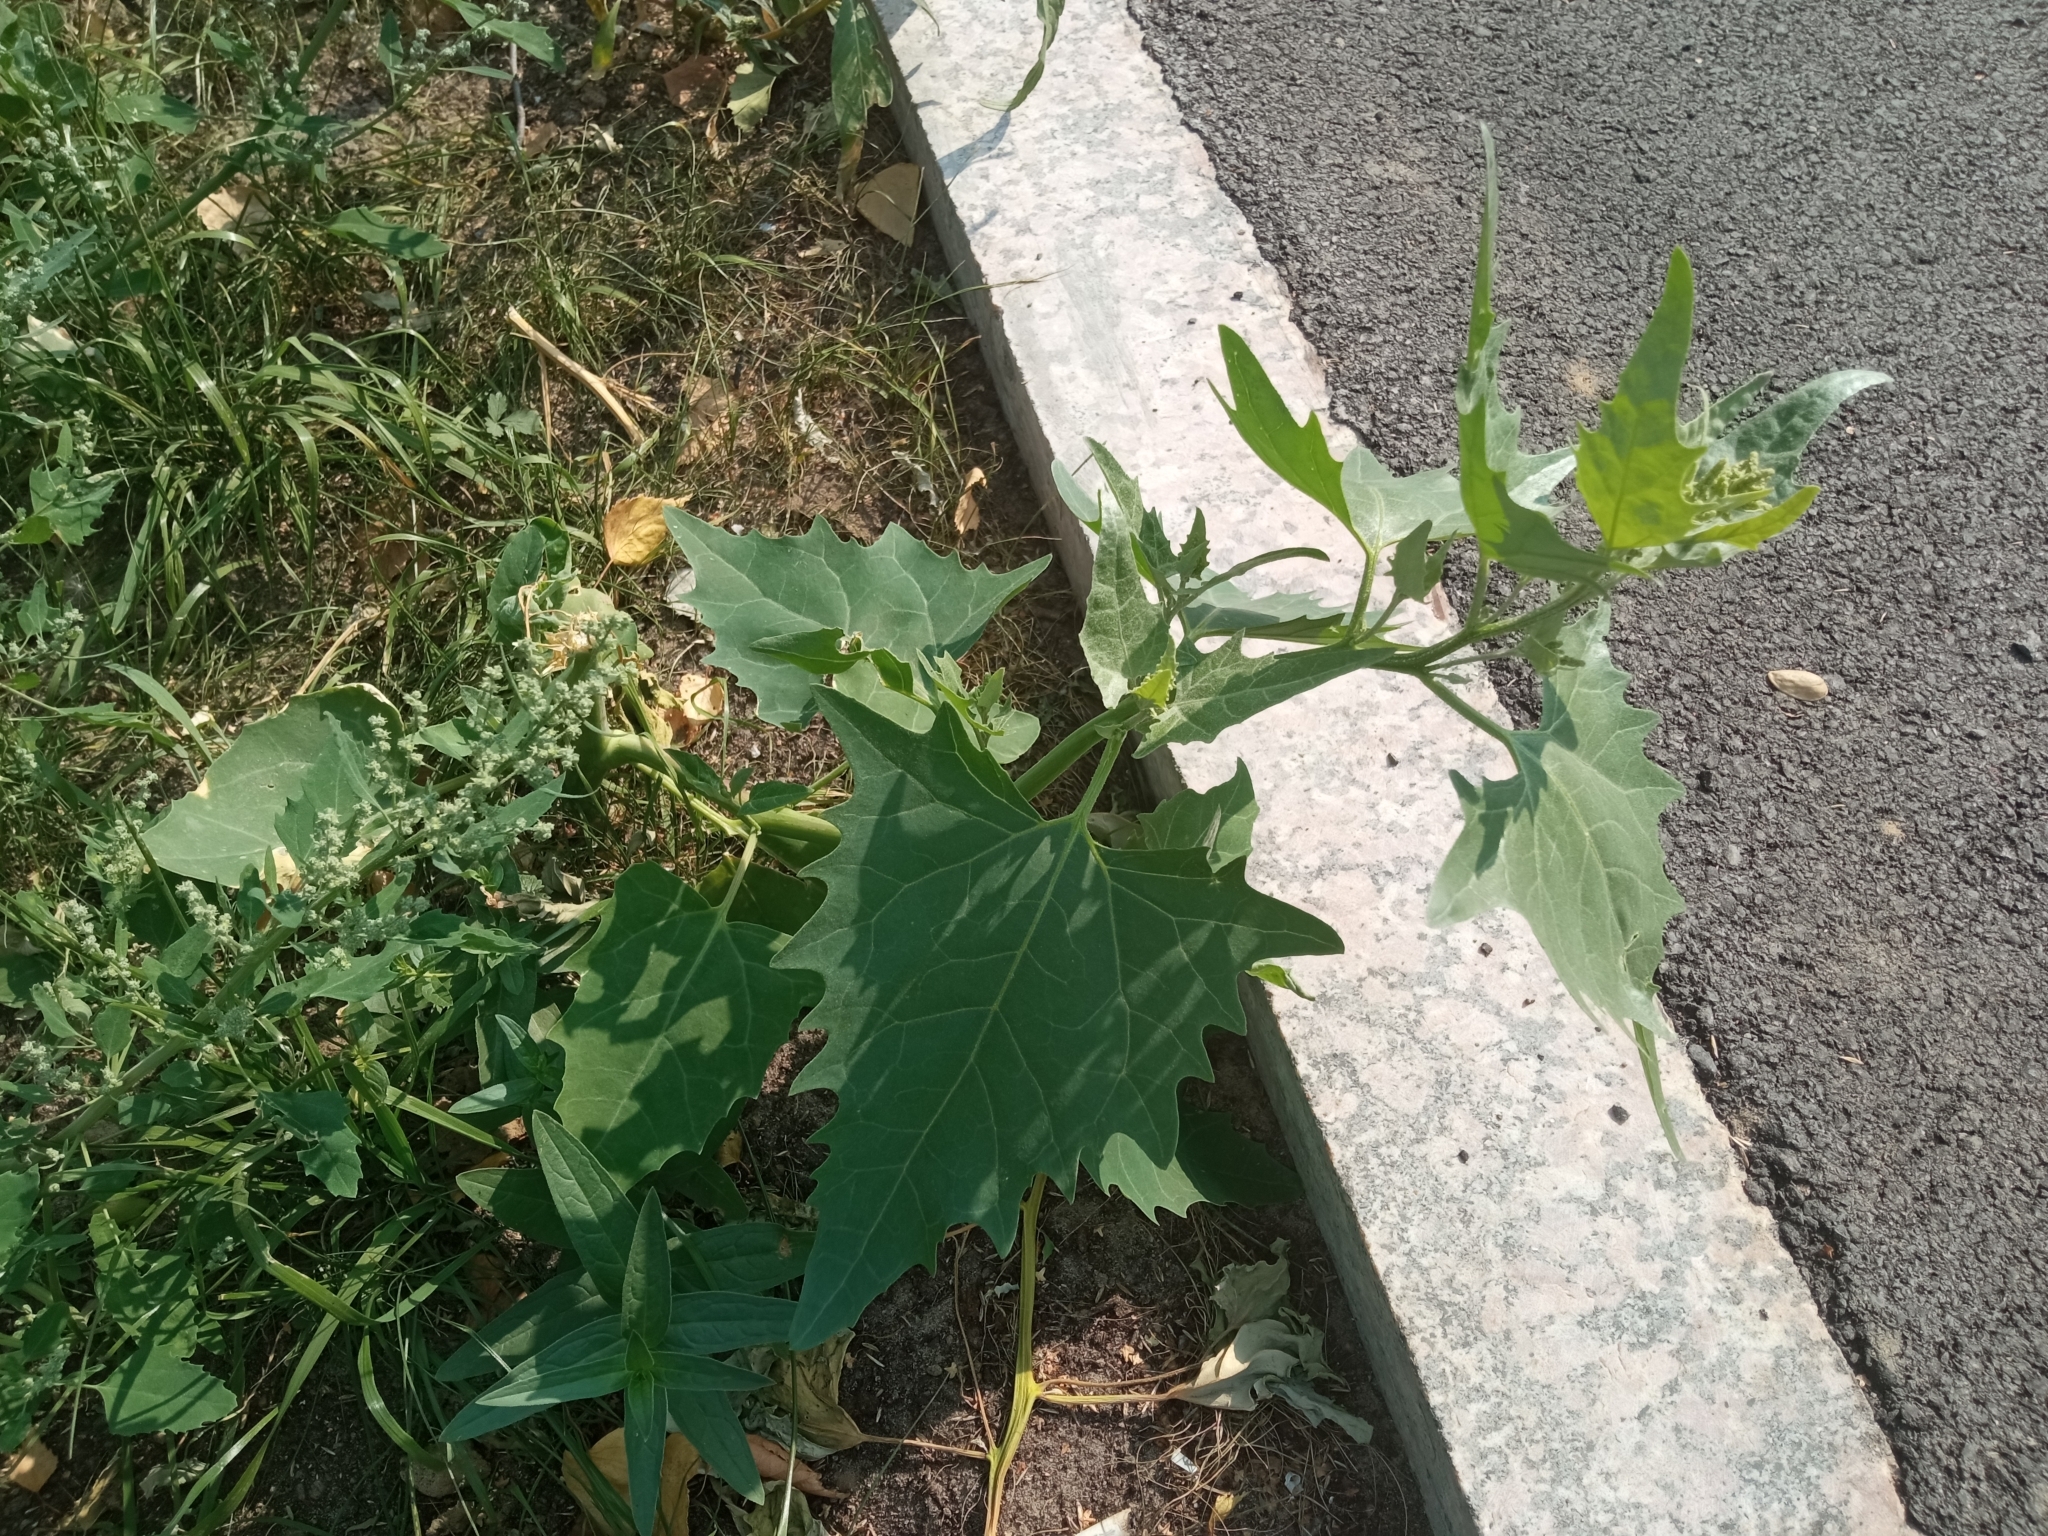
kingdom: Plantae
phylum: Tracheophyta
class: Magnoliopsida
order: Caryophyllales
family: Amaranthaceae
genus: Atriplex
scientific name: Atriplex sagittata
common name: Purple orache
